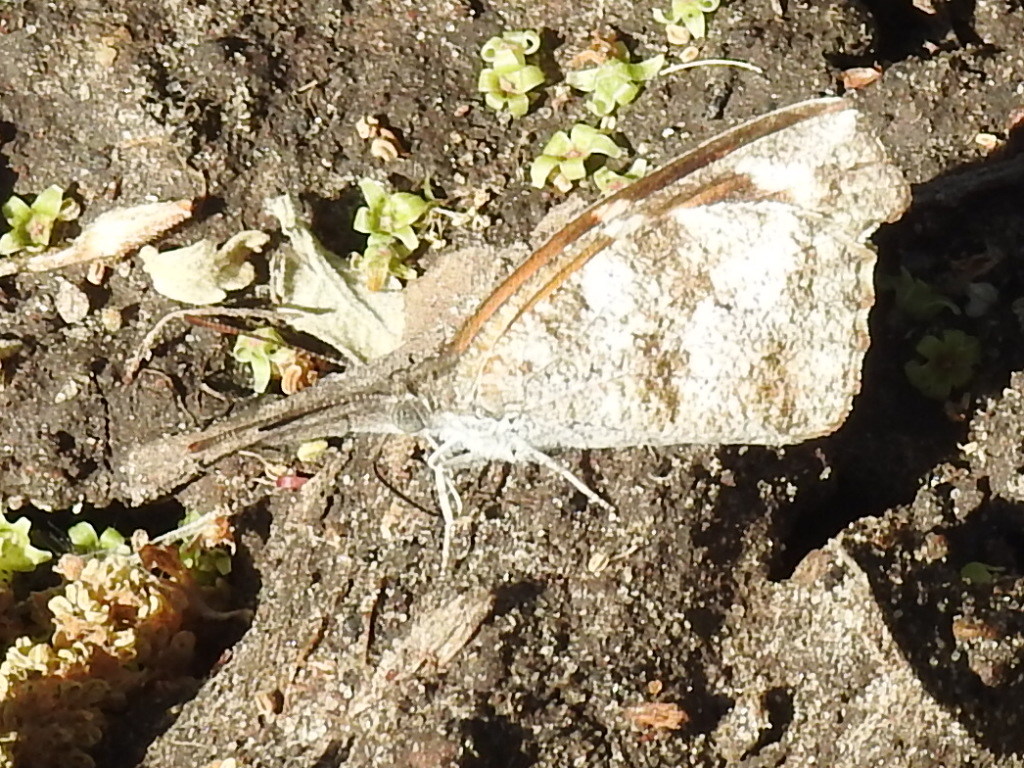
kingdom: Animalia
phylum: Arthropoda
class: Insecta
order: Lepidoptera
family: Nymphalidae
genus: Libytheana
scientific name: Libytheana carinenta
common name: American snout
